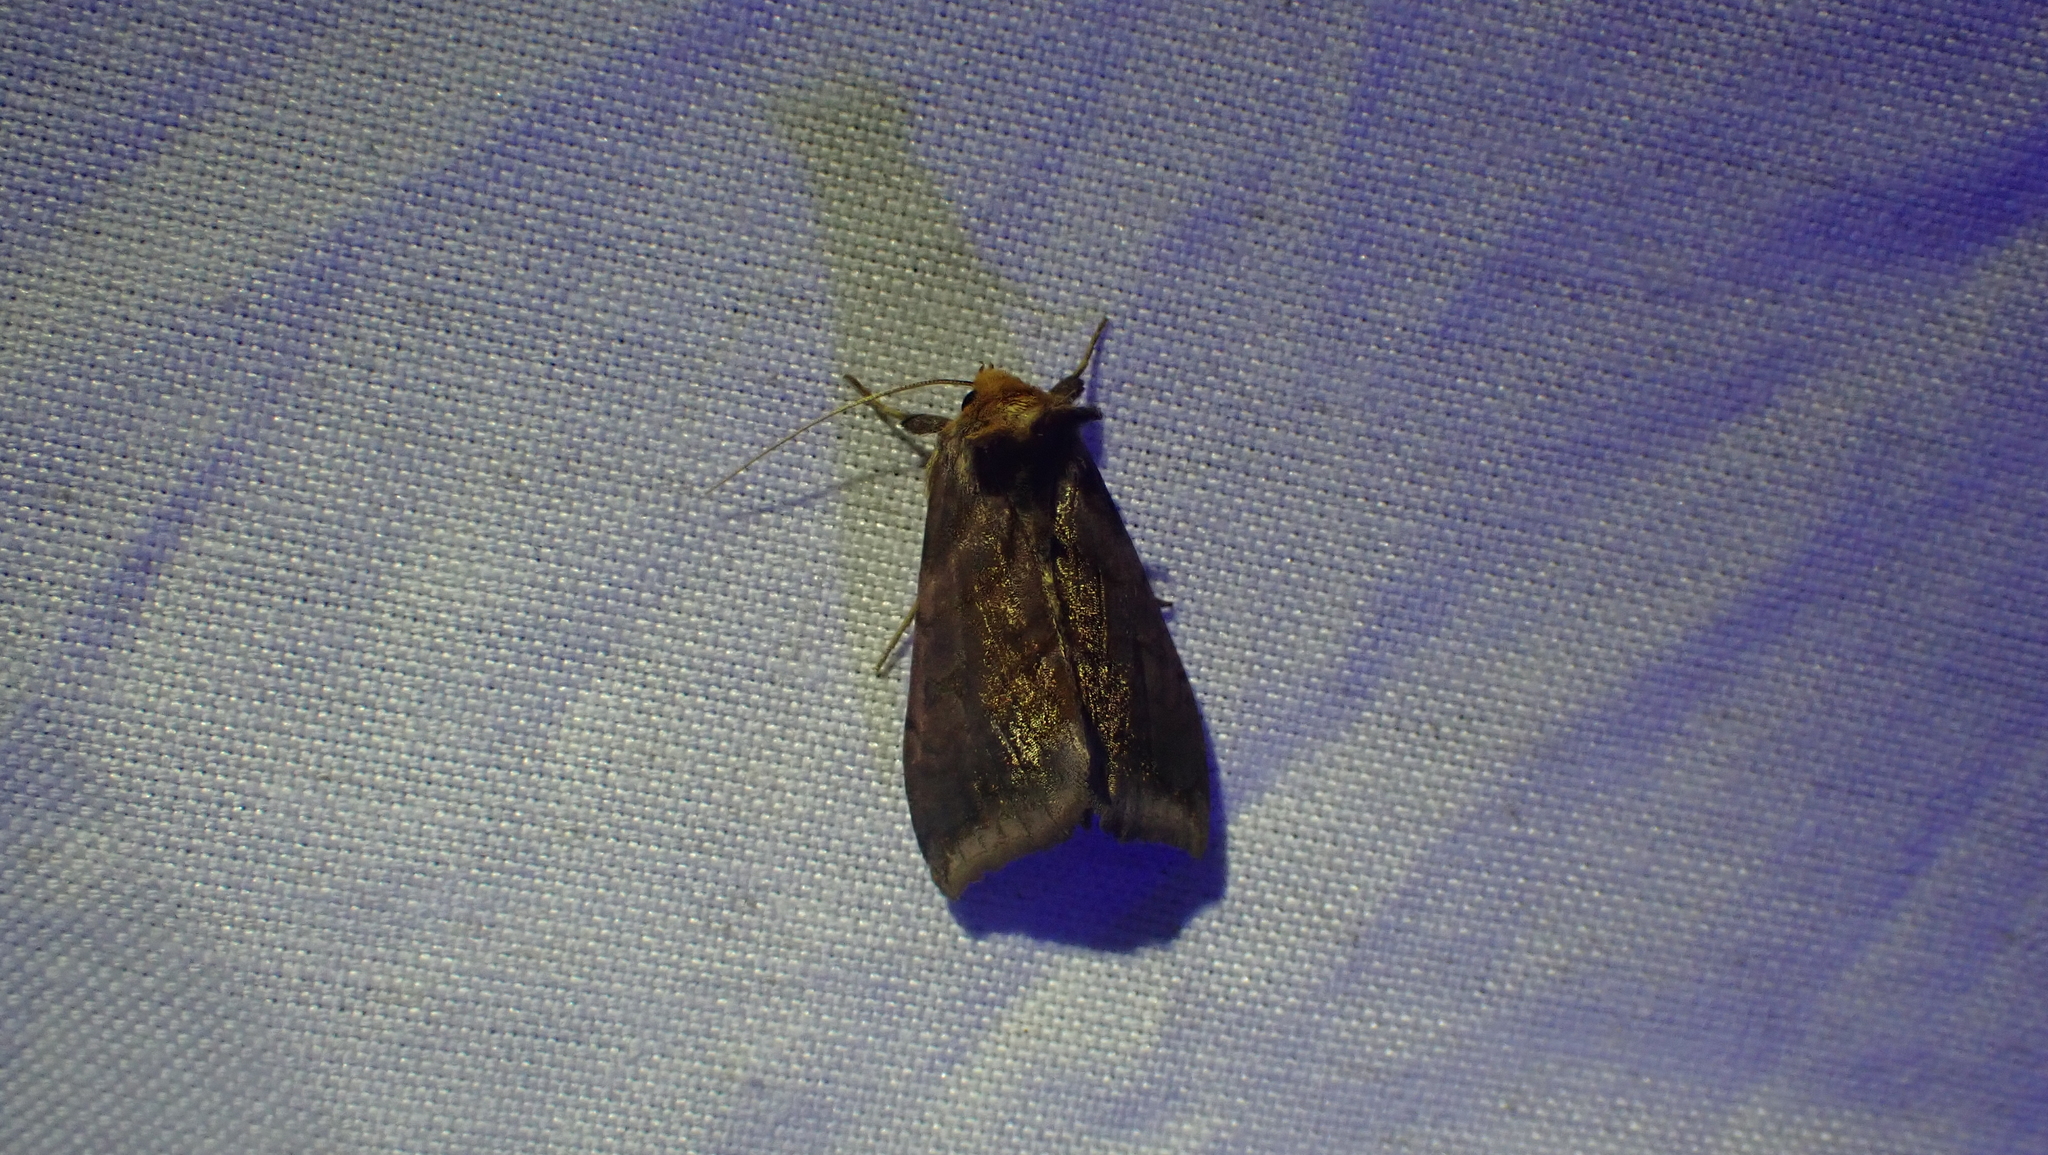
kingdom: Animalia
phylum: Arthropoda
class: Insecta
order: Lepidoptera
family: Noctuidae
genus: Allagrapha
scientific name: Allagrapha aerea
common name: Unspotted looper moth
